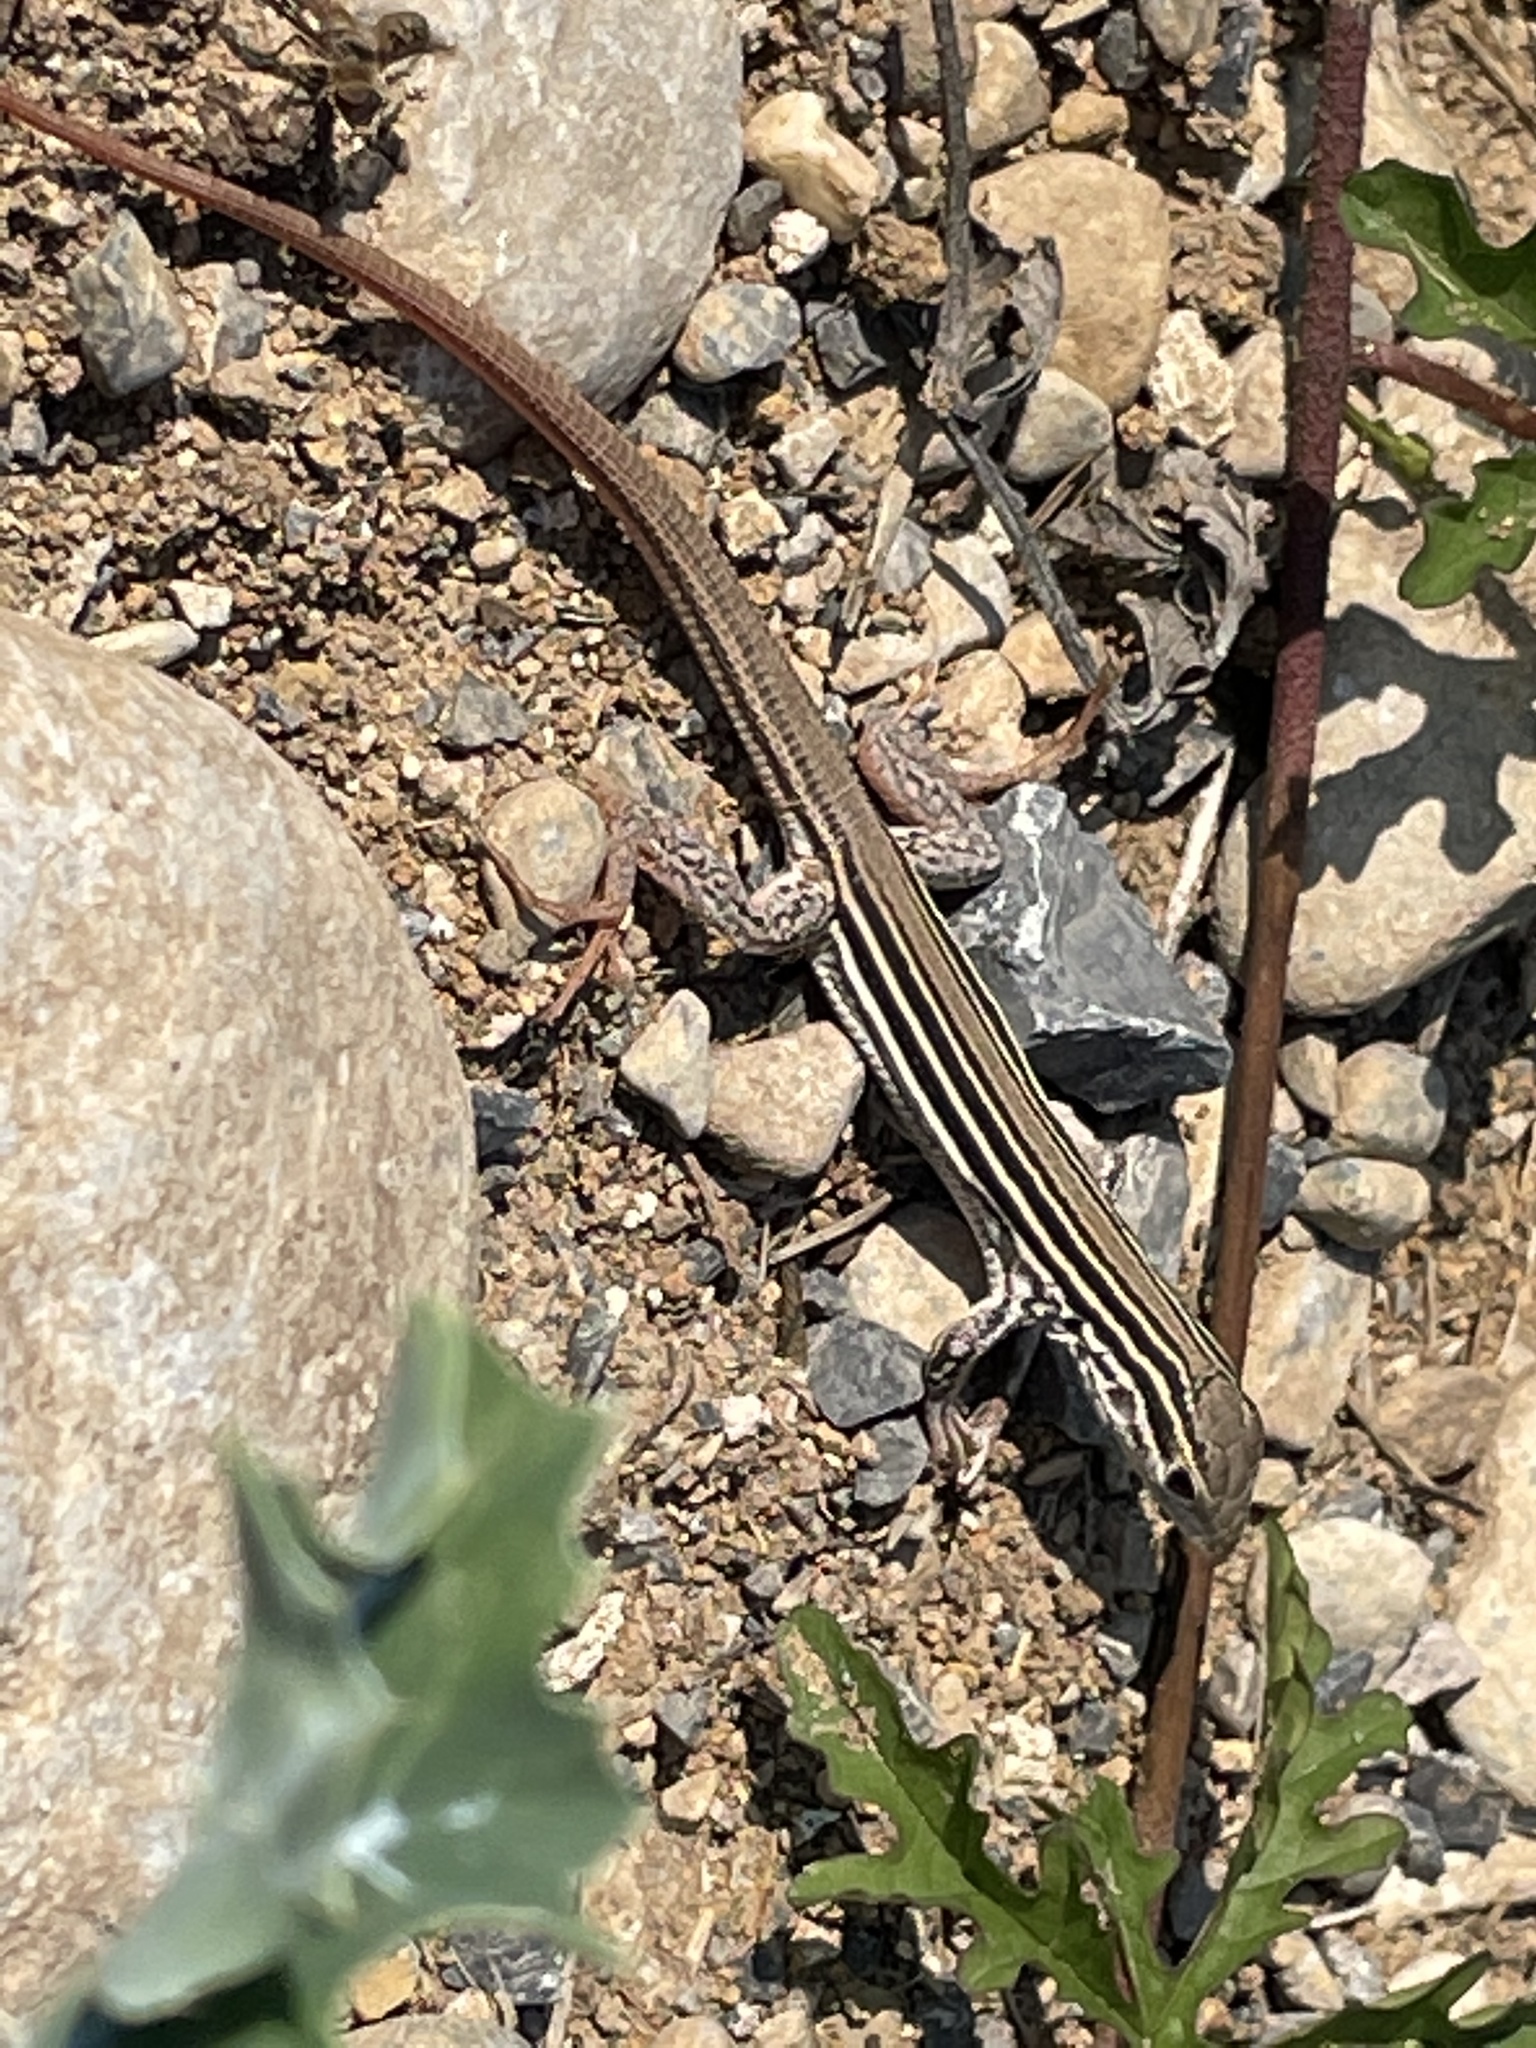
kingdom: Animalia
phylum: Chordata
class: Squamata
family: Teiidae
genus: Aspidoscelis
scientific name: Aspidoscelis gularis
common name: Eastern spotted whiptail
